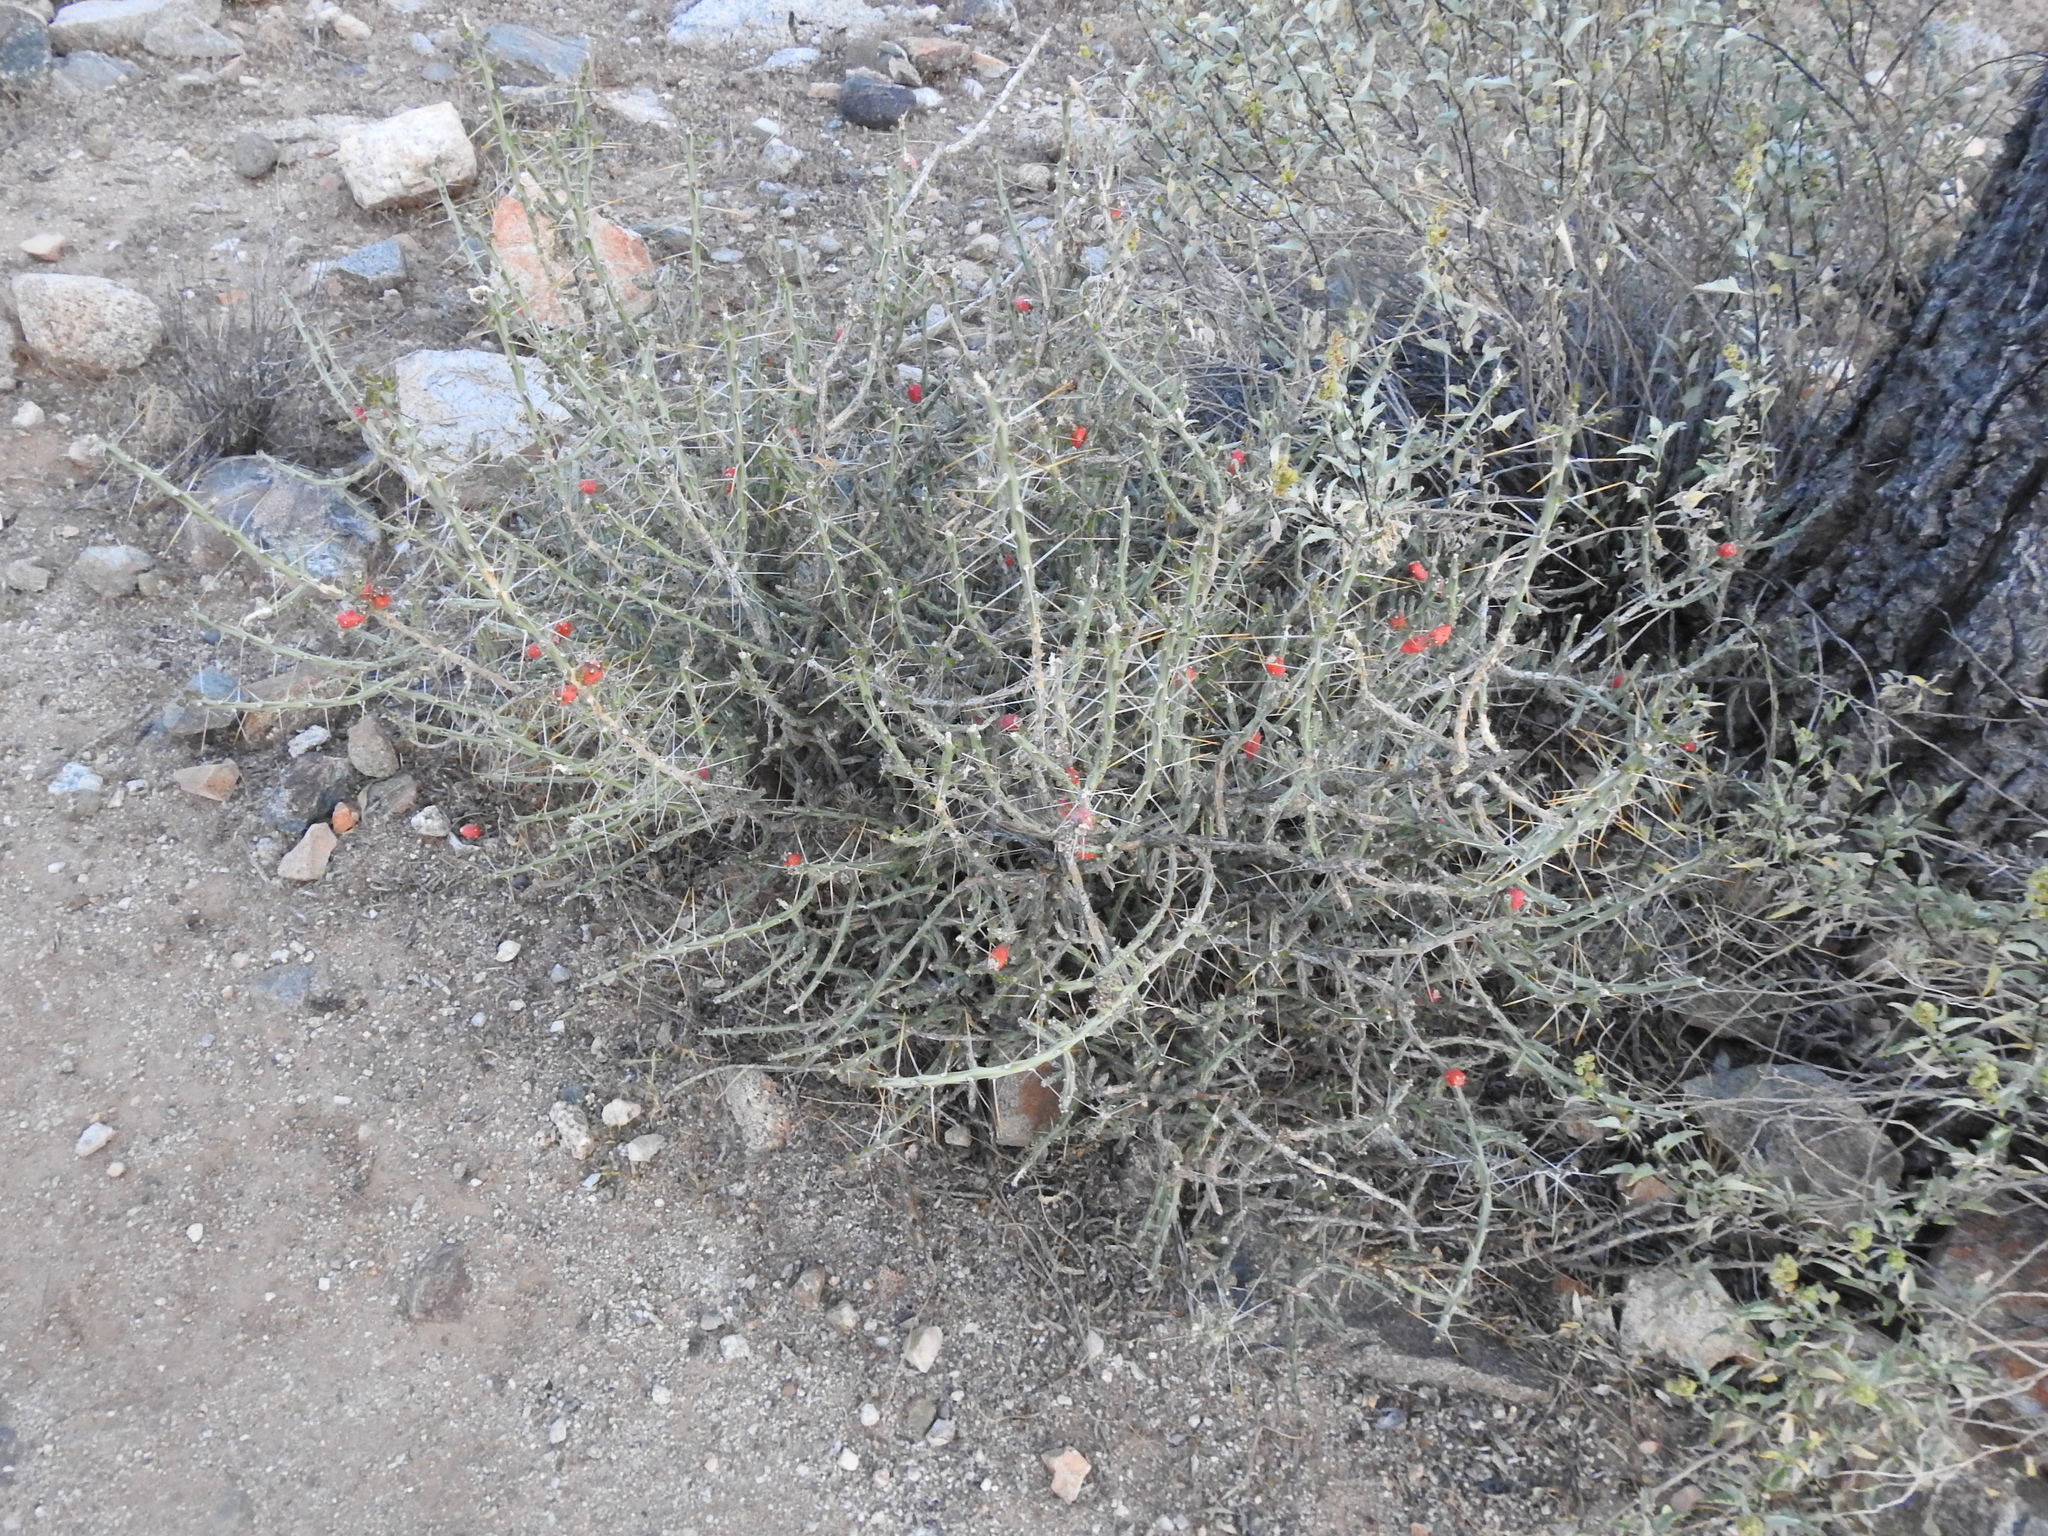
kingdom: Plantae
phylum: Tracheophyta
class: Magnoliopsida
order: Caryophyllales
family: Cactaceae
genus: Cylindropuntia
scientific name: Cylindropuntia leptocaulis
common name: Christmas cactus
